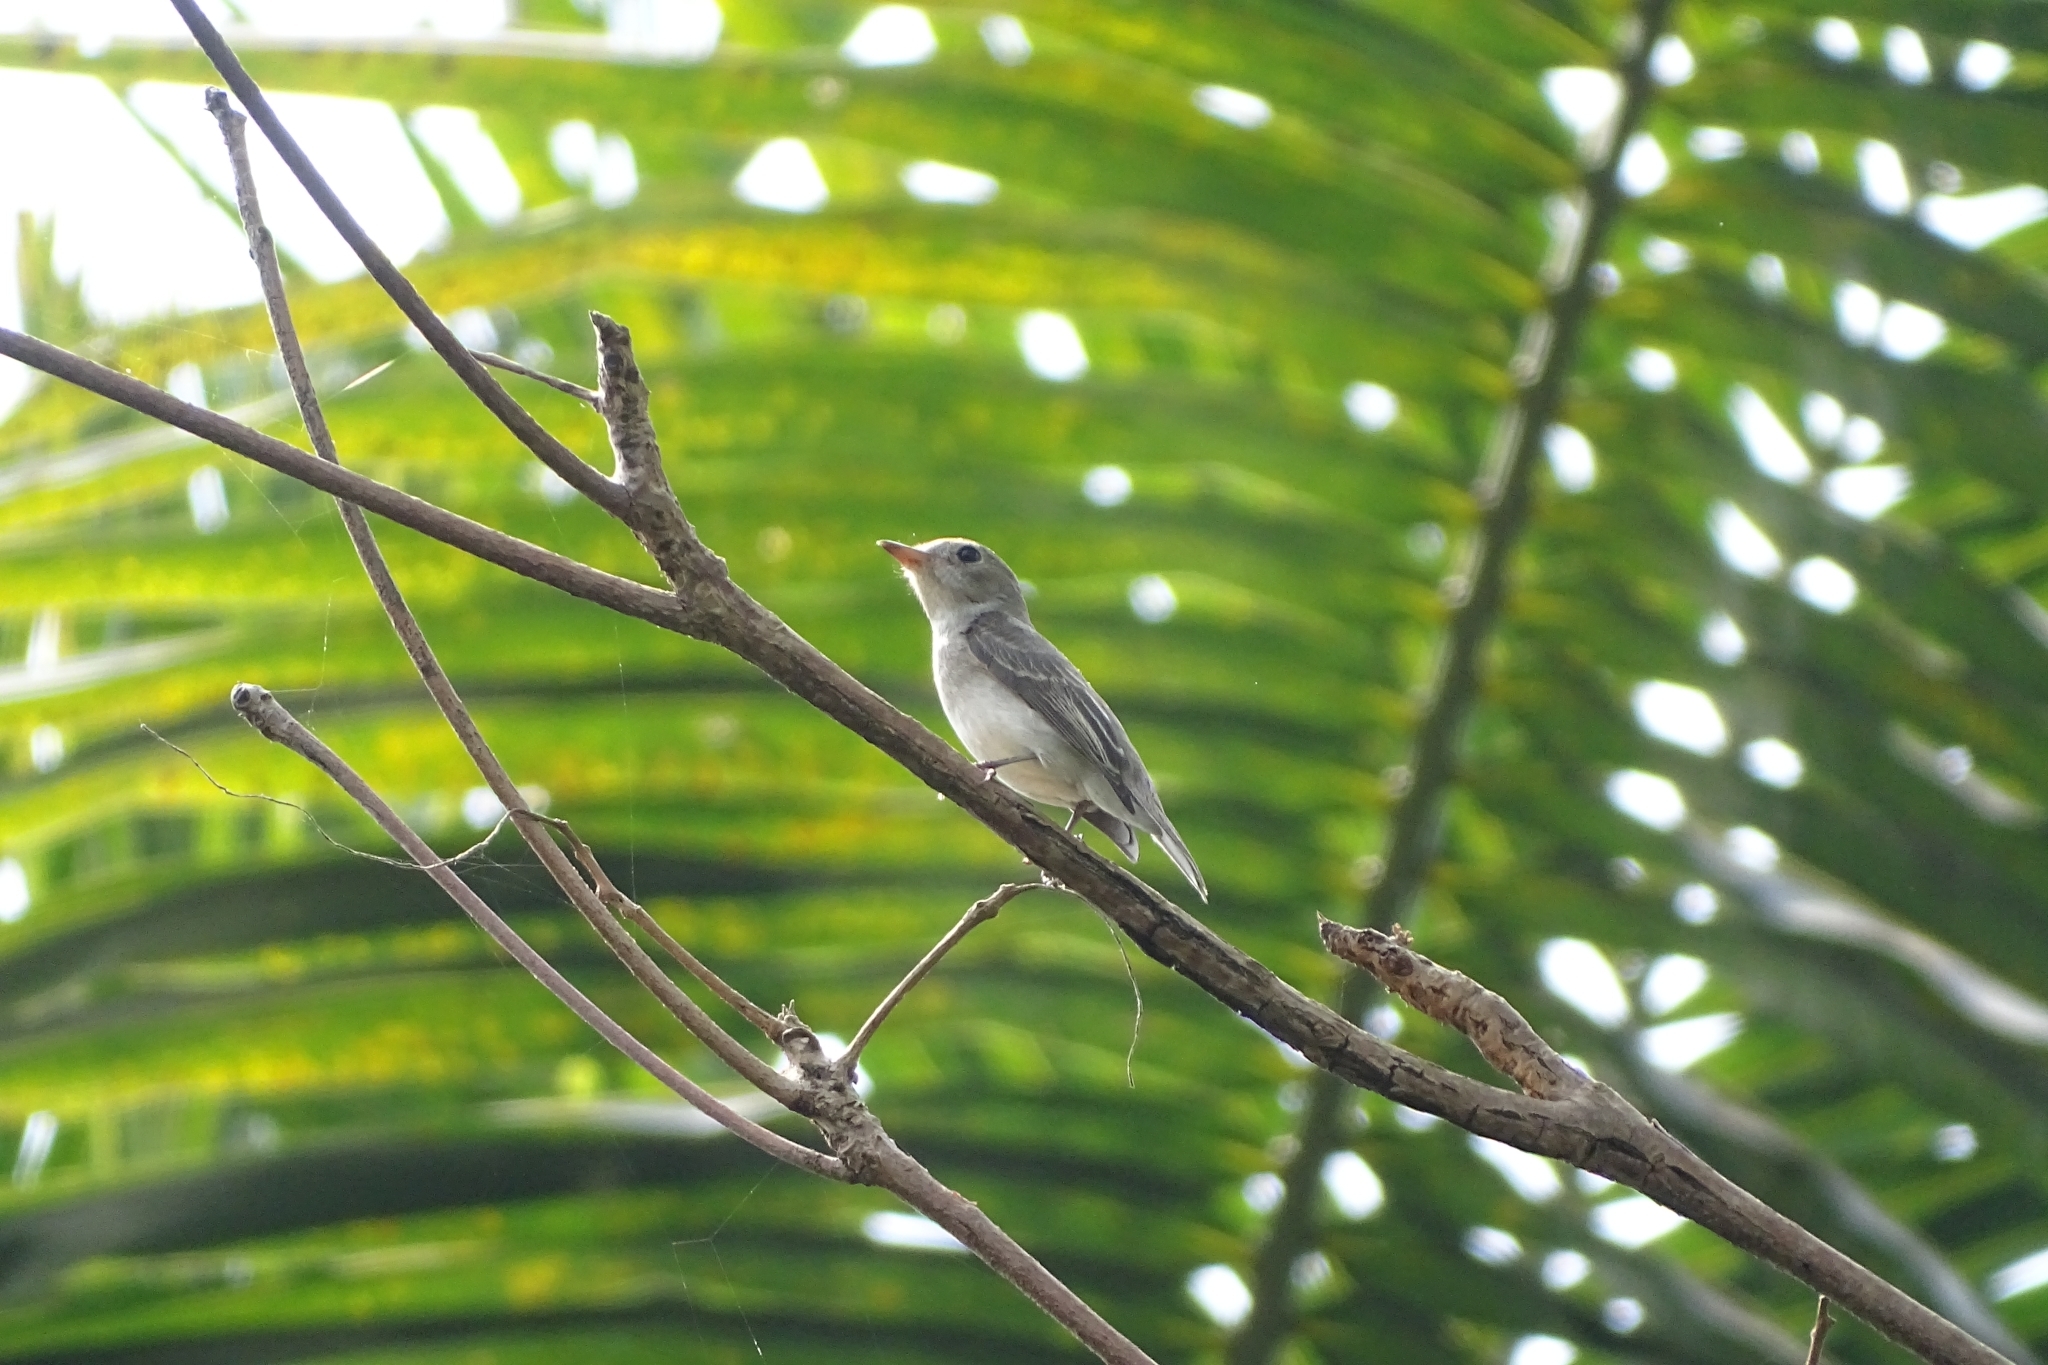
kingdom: Animalia
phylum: Chordata
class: Aves
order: Passeriformes
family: Muscicapidae
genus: Muscicapa
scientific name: Muscicapa latirostris
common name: Asian brown flycatcher
